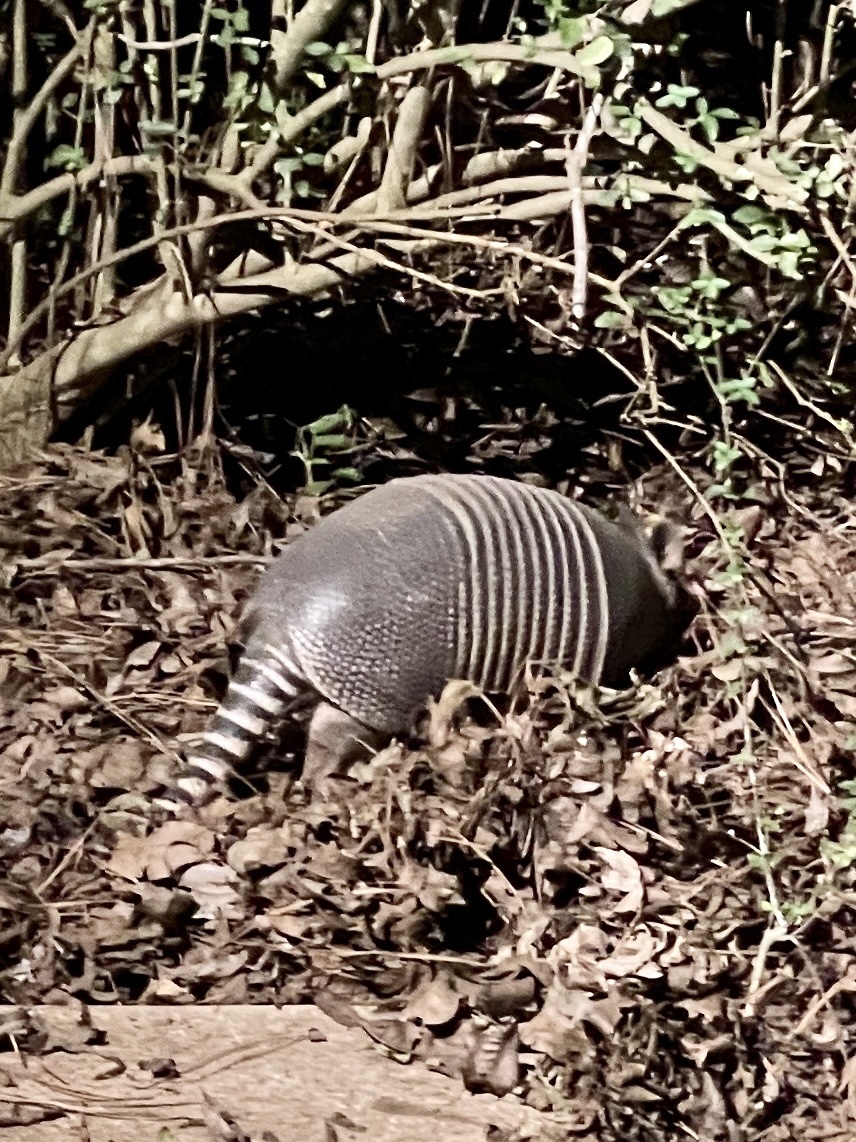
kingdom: Animalia
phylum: Chordata
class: Mammalia
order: Cingulata
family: Dasypodidae
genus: Dasypus
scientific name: Dasypus novemcinctus
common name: Nine-banded armadillo
